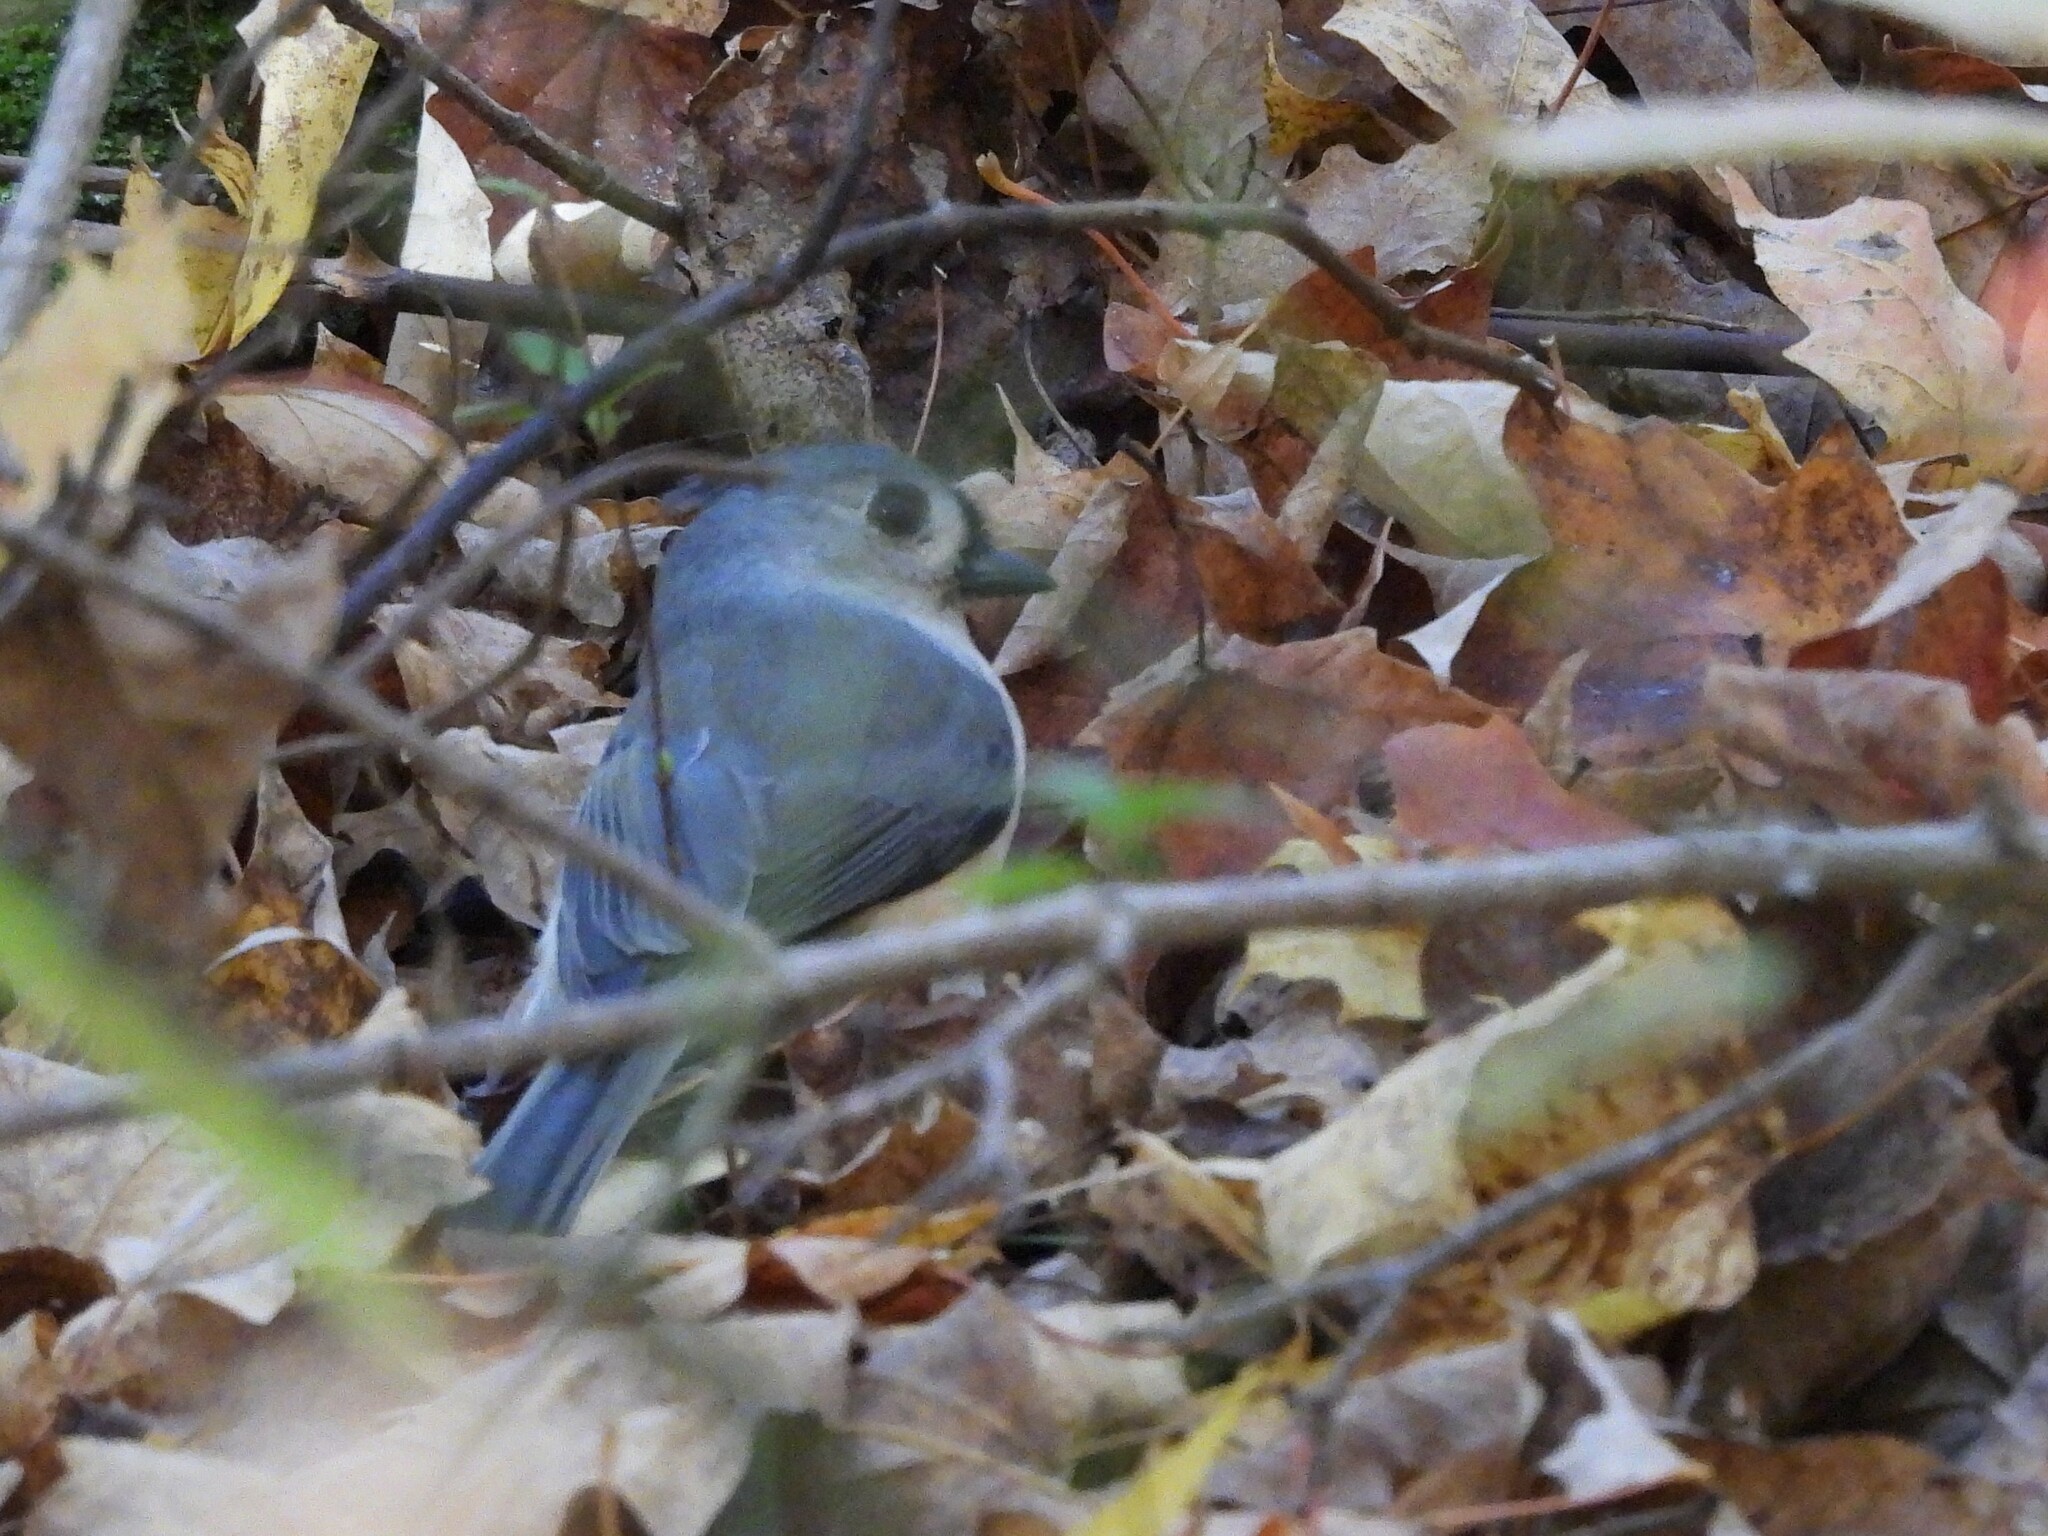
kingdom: Animalia
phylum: Chordata
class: Aves
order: Passeriformes
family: Paridae
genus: Baeolophus
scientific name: Baeolophus bicolor
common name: Tufted titmouse
